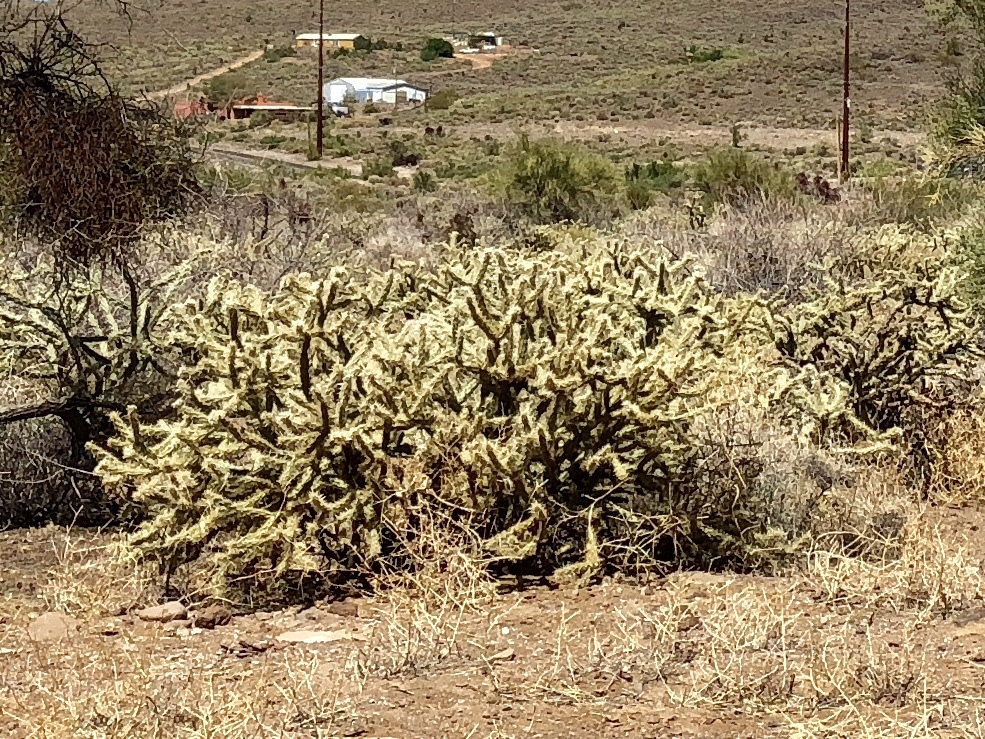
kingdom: Plantae
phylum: Tracheophyta
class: Magnoliopsida
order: Caryophyllales
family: Cactaceae
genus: Cylindropuntia
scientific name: Cylindropuntia acanthocarpa
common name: Buckhorn cholla
